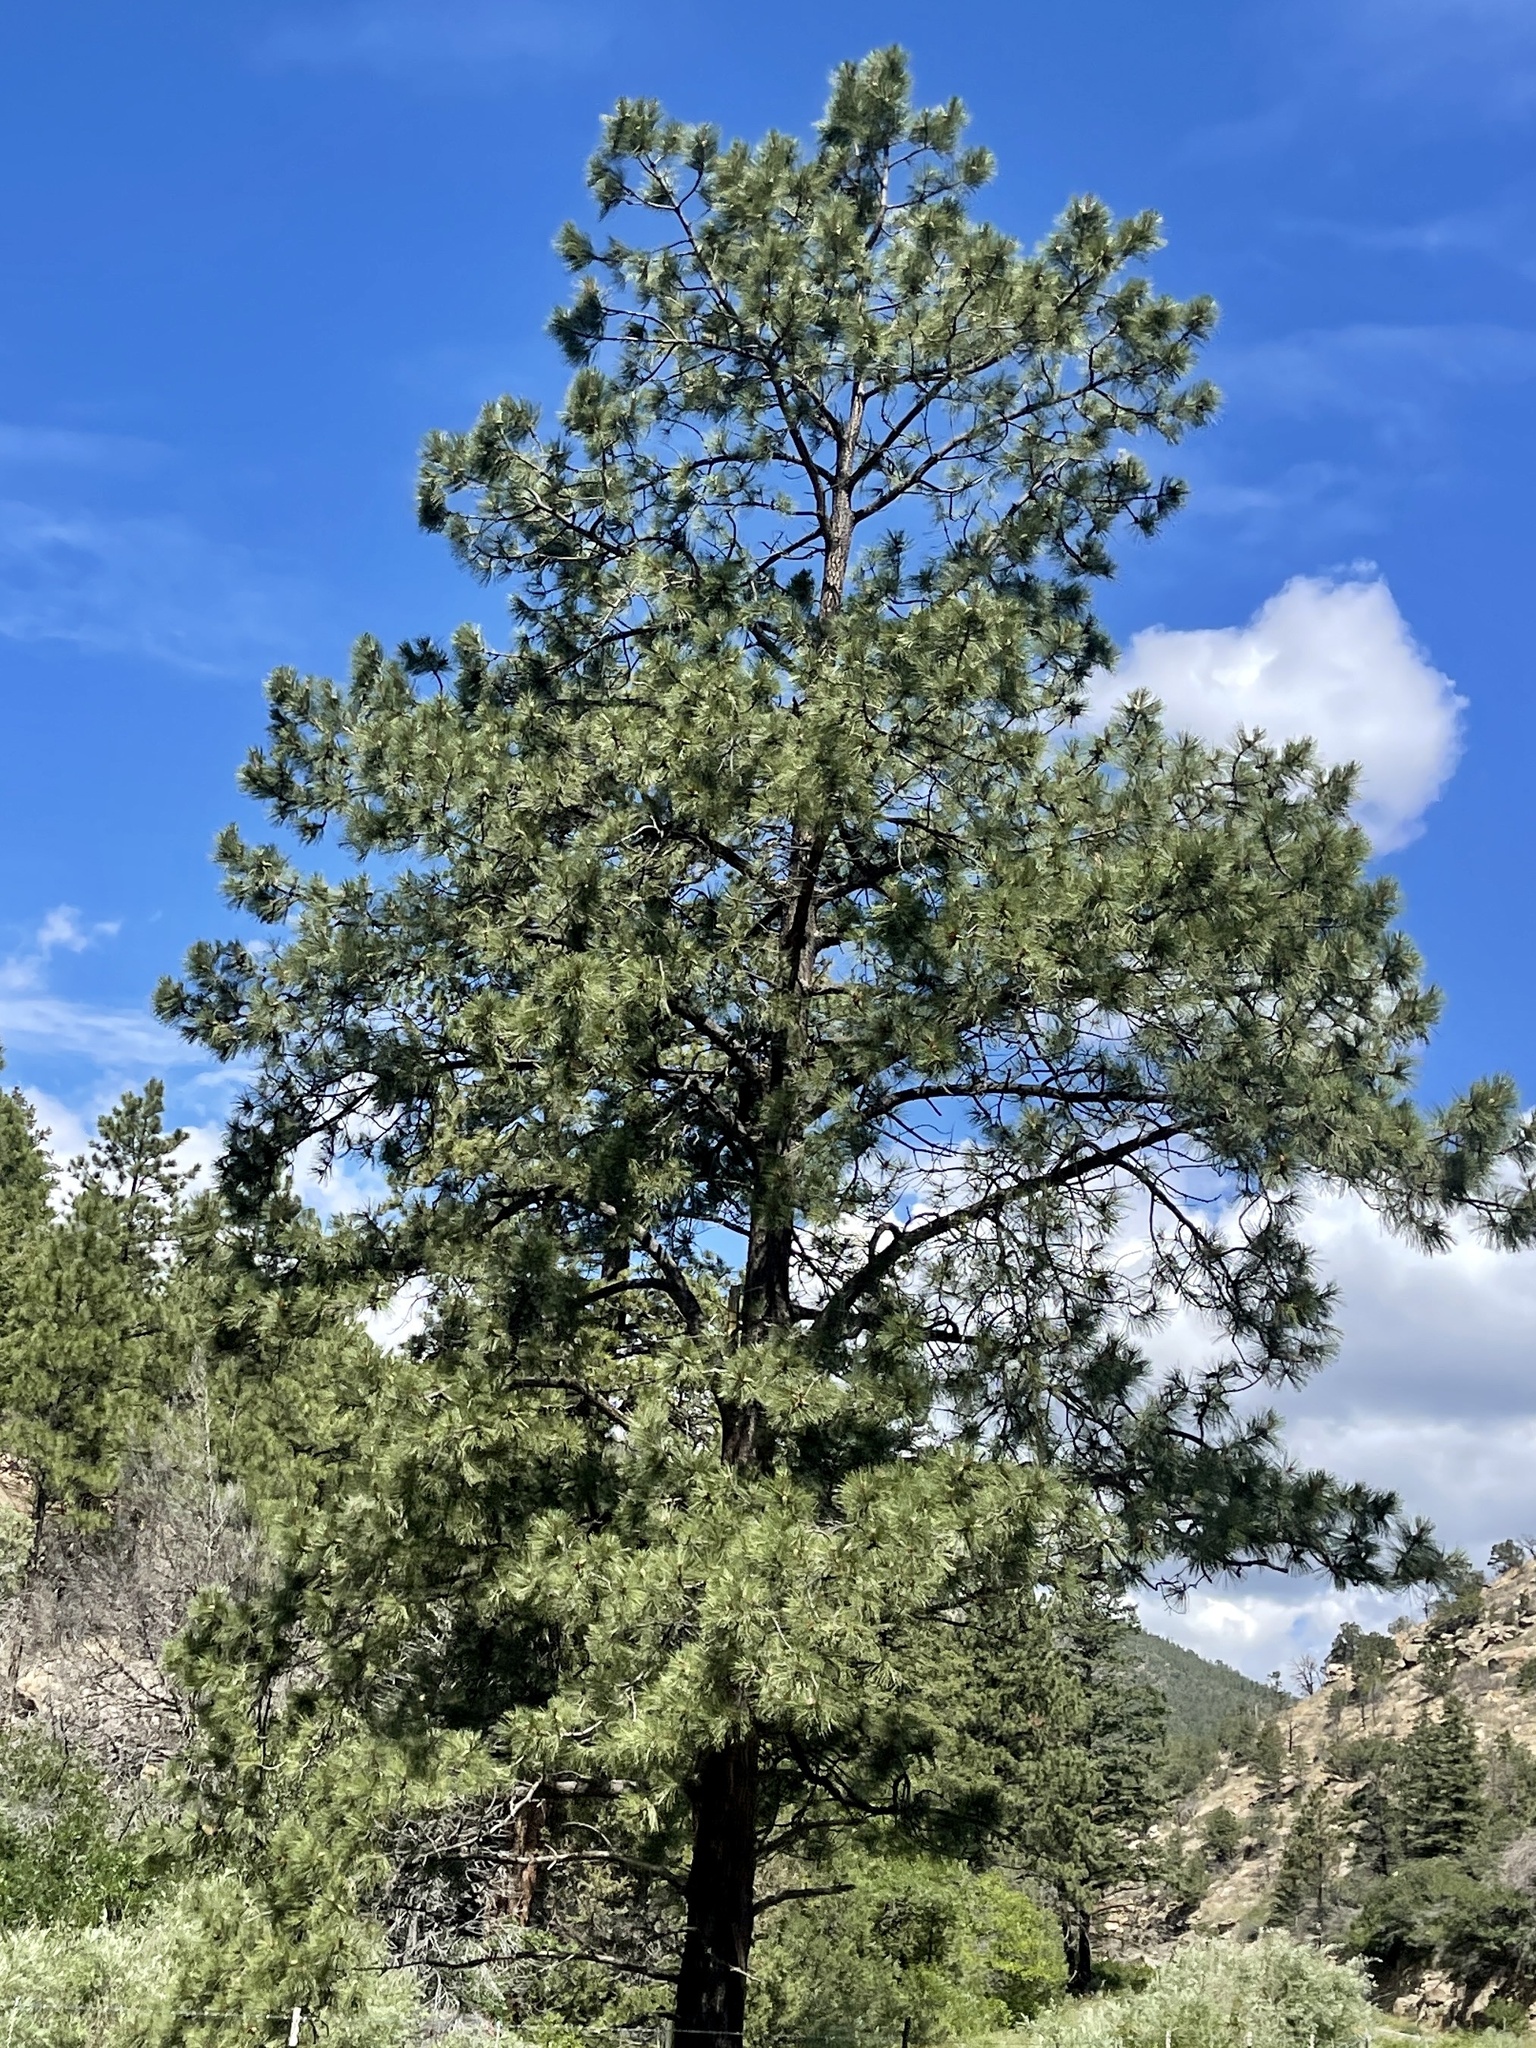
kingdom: Plantae
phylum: Tracheophyta
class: Pinopsida
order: Pinales
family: Pinaceae
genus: Pinus
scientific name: Pinus ponderosa
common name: Western yellow-pine
